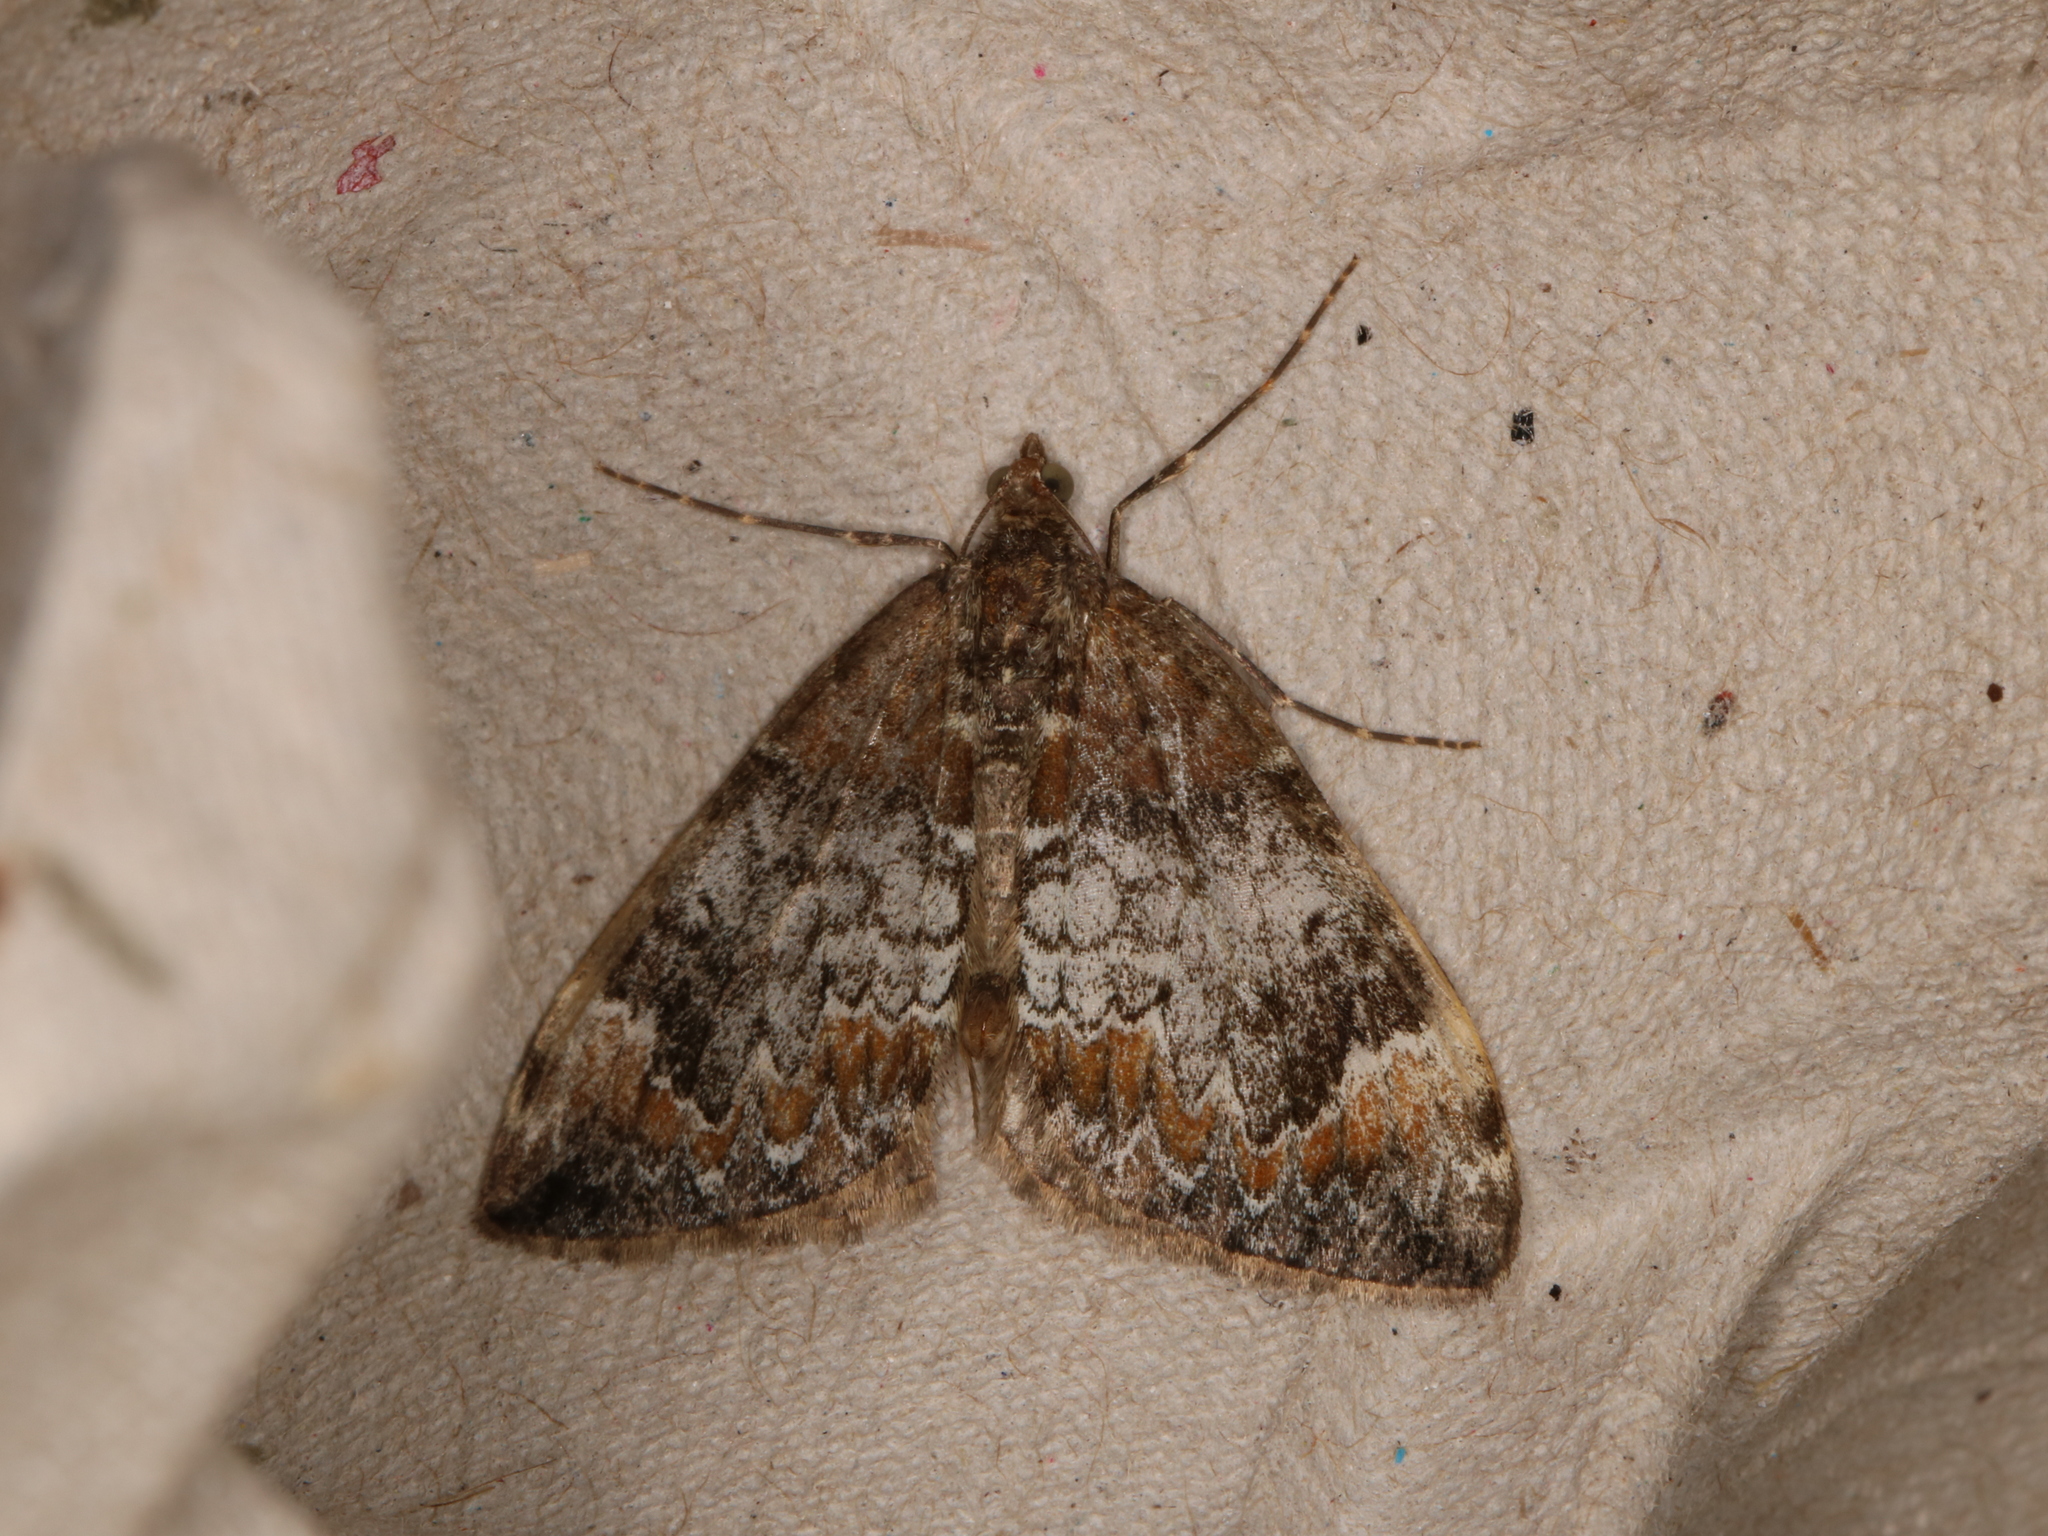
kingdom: Animalia
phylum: Arthropoda
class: Insecta
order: Lepidoptera
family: Geometridae
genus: Dysstroma
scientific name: Dysstroma truncata
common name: Common marbled carpet
